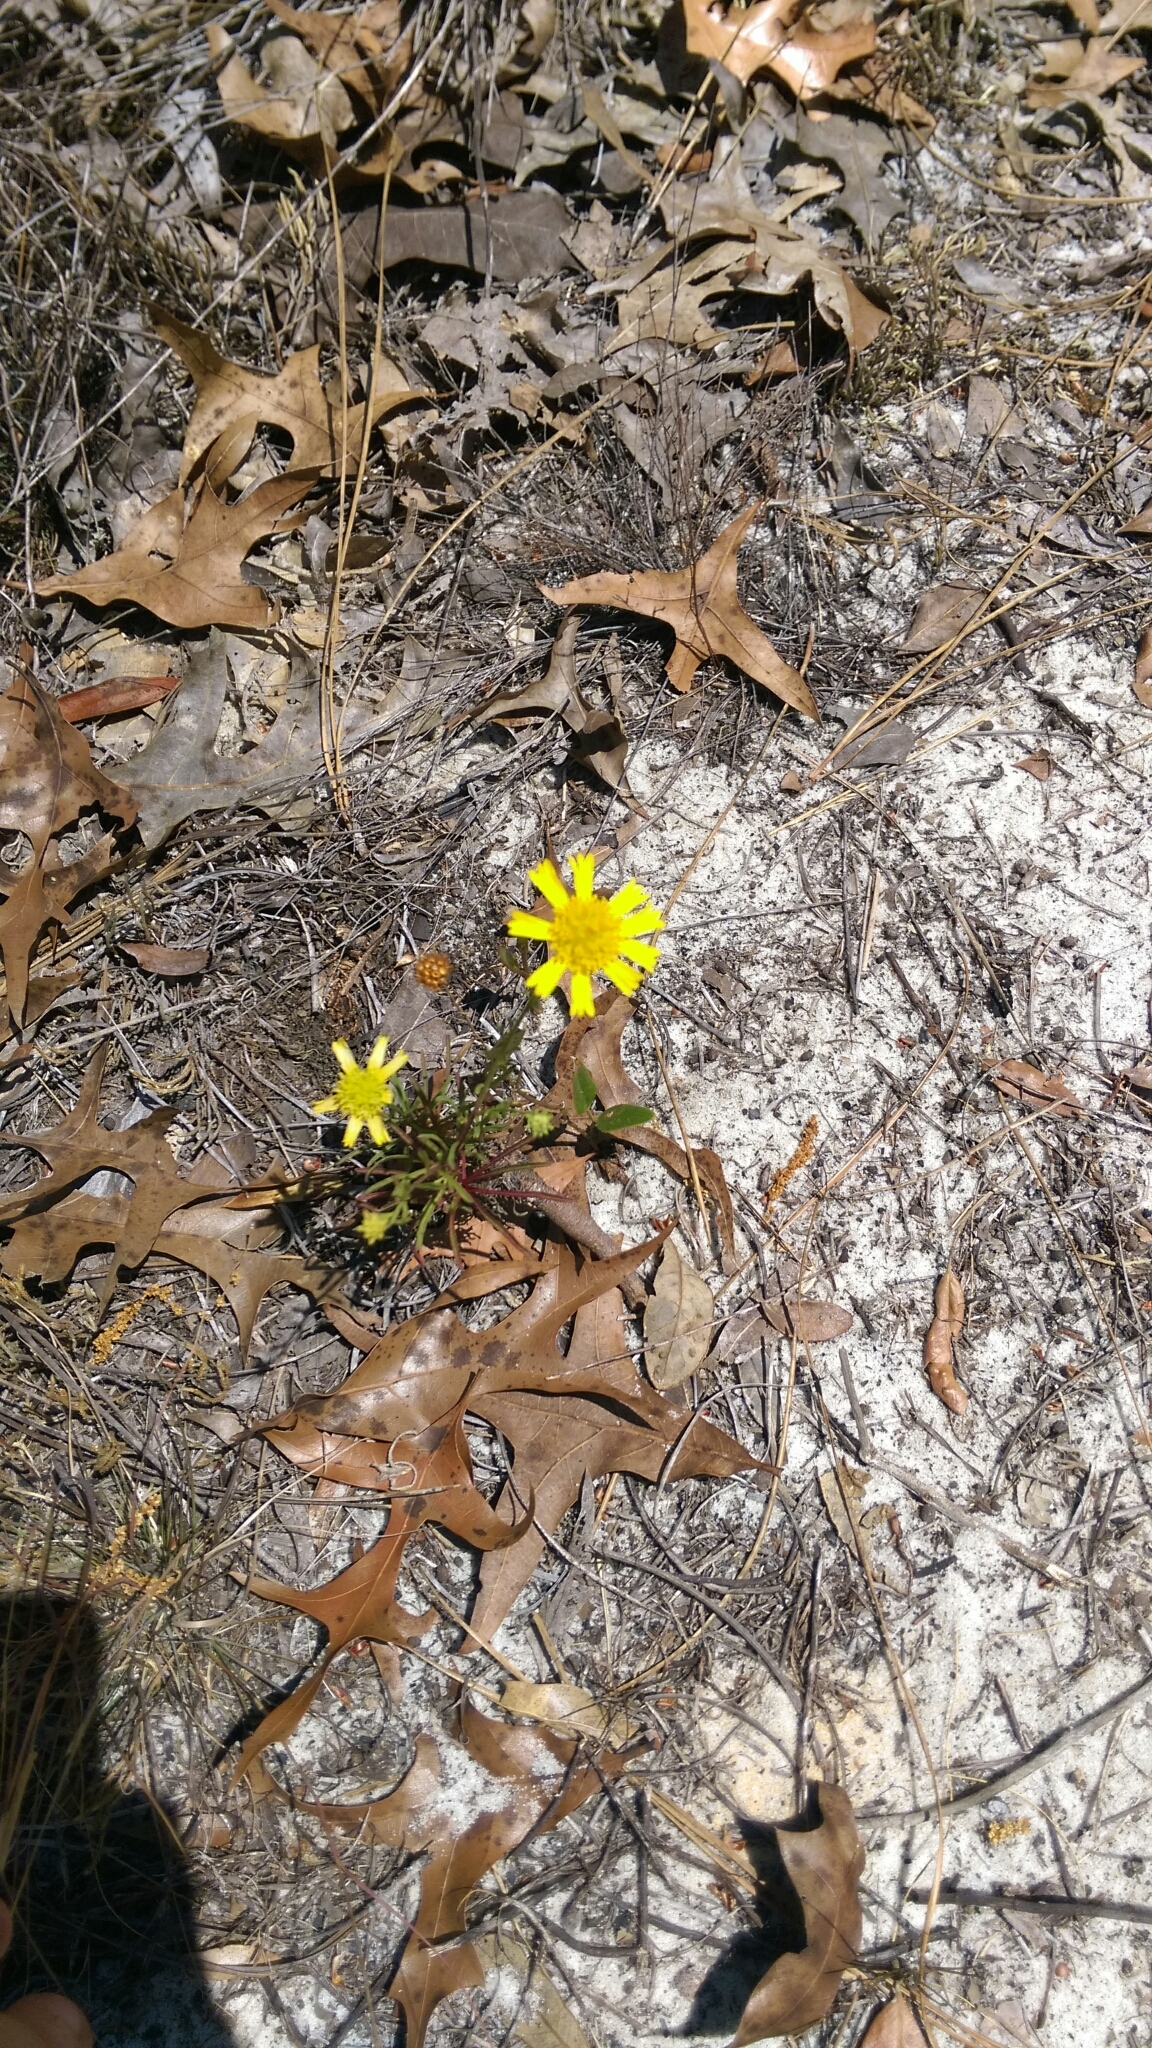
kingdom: Plantae
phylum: Tracheophyta
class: Magnoliopsida
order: Asterales
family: Asteraceae
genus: Balduina
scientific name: Balduina angustifolia
